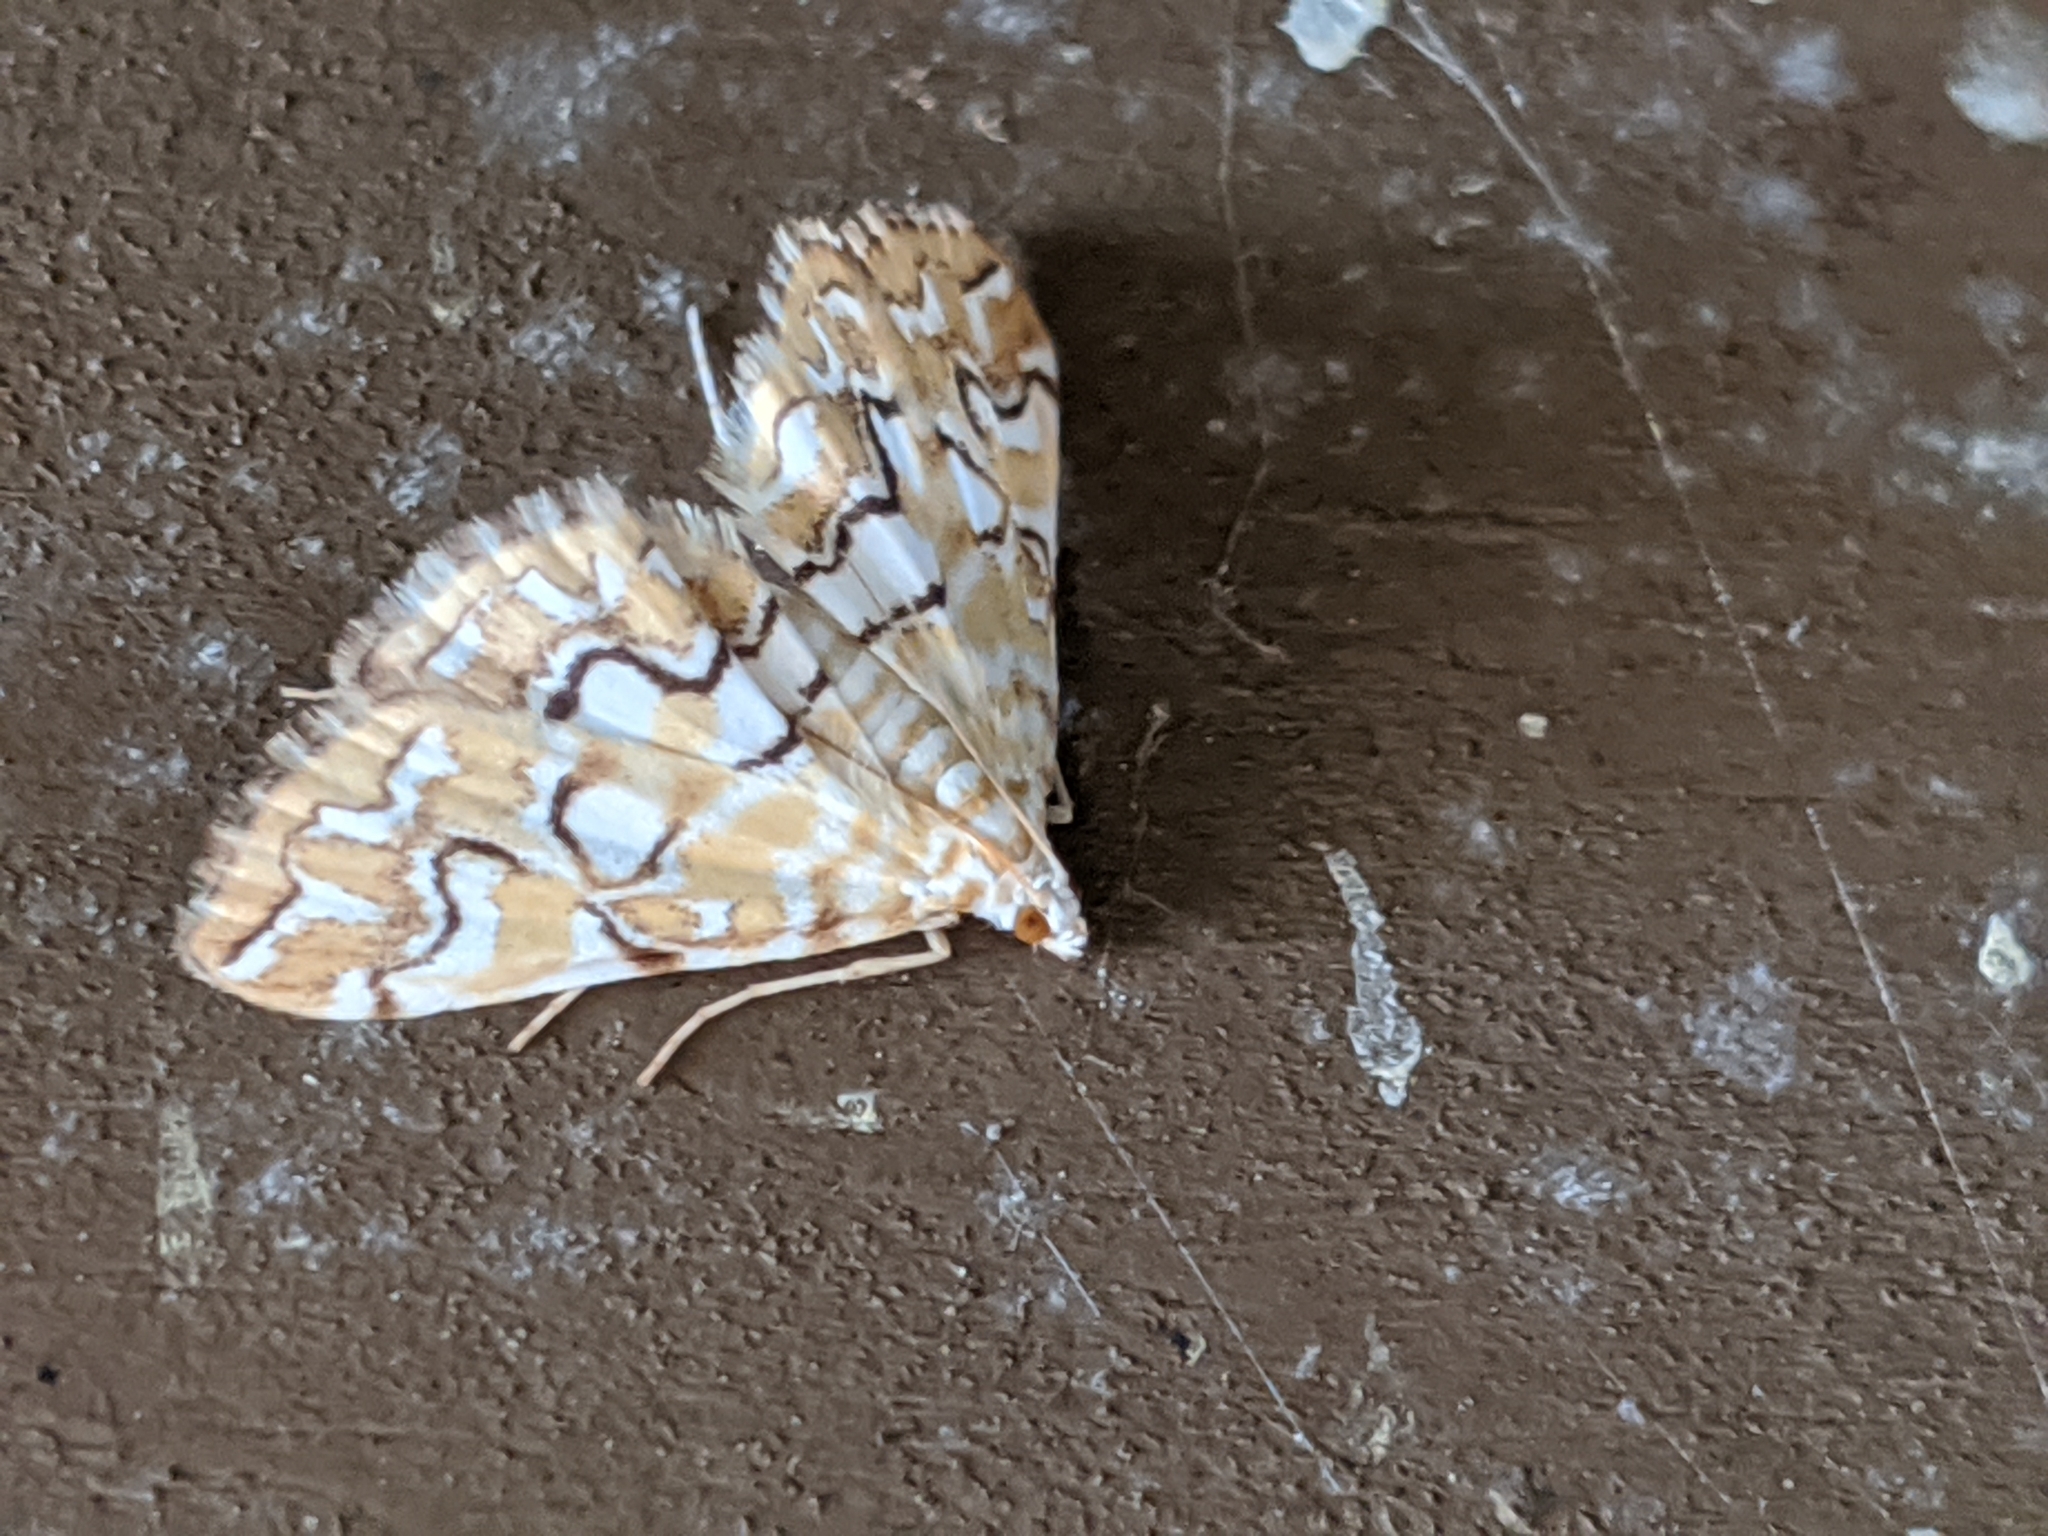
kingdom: Animalia
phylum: Arthropoda
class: Insecta
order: Lepidoptera
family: Crambidae
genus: Elophila
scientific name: Elophila icciusalis
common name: Pondside pyralid moth
